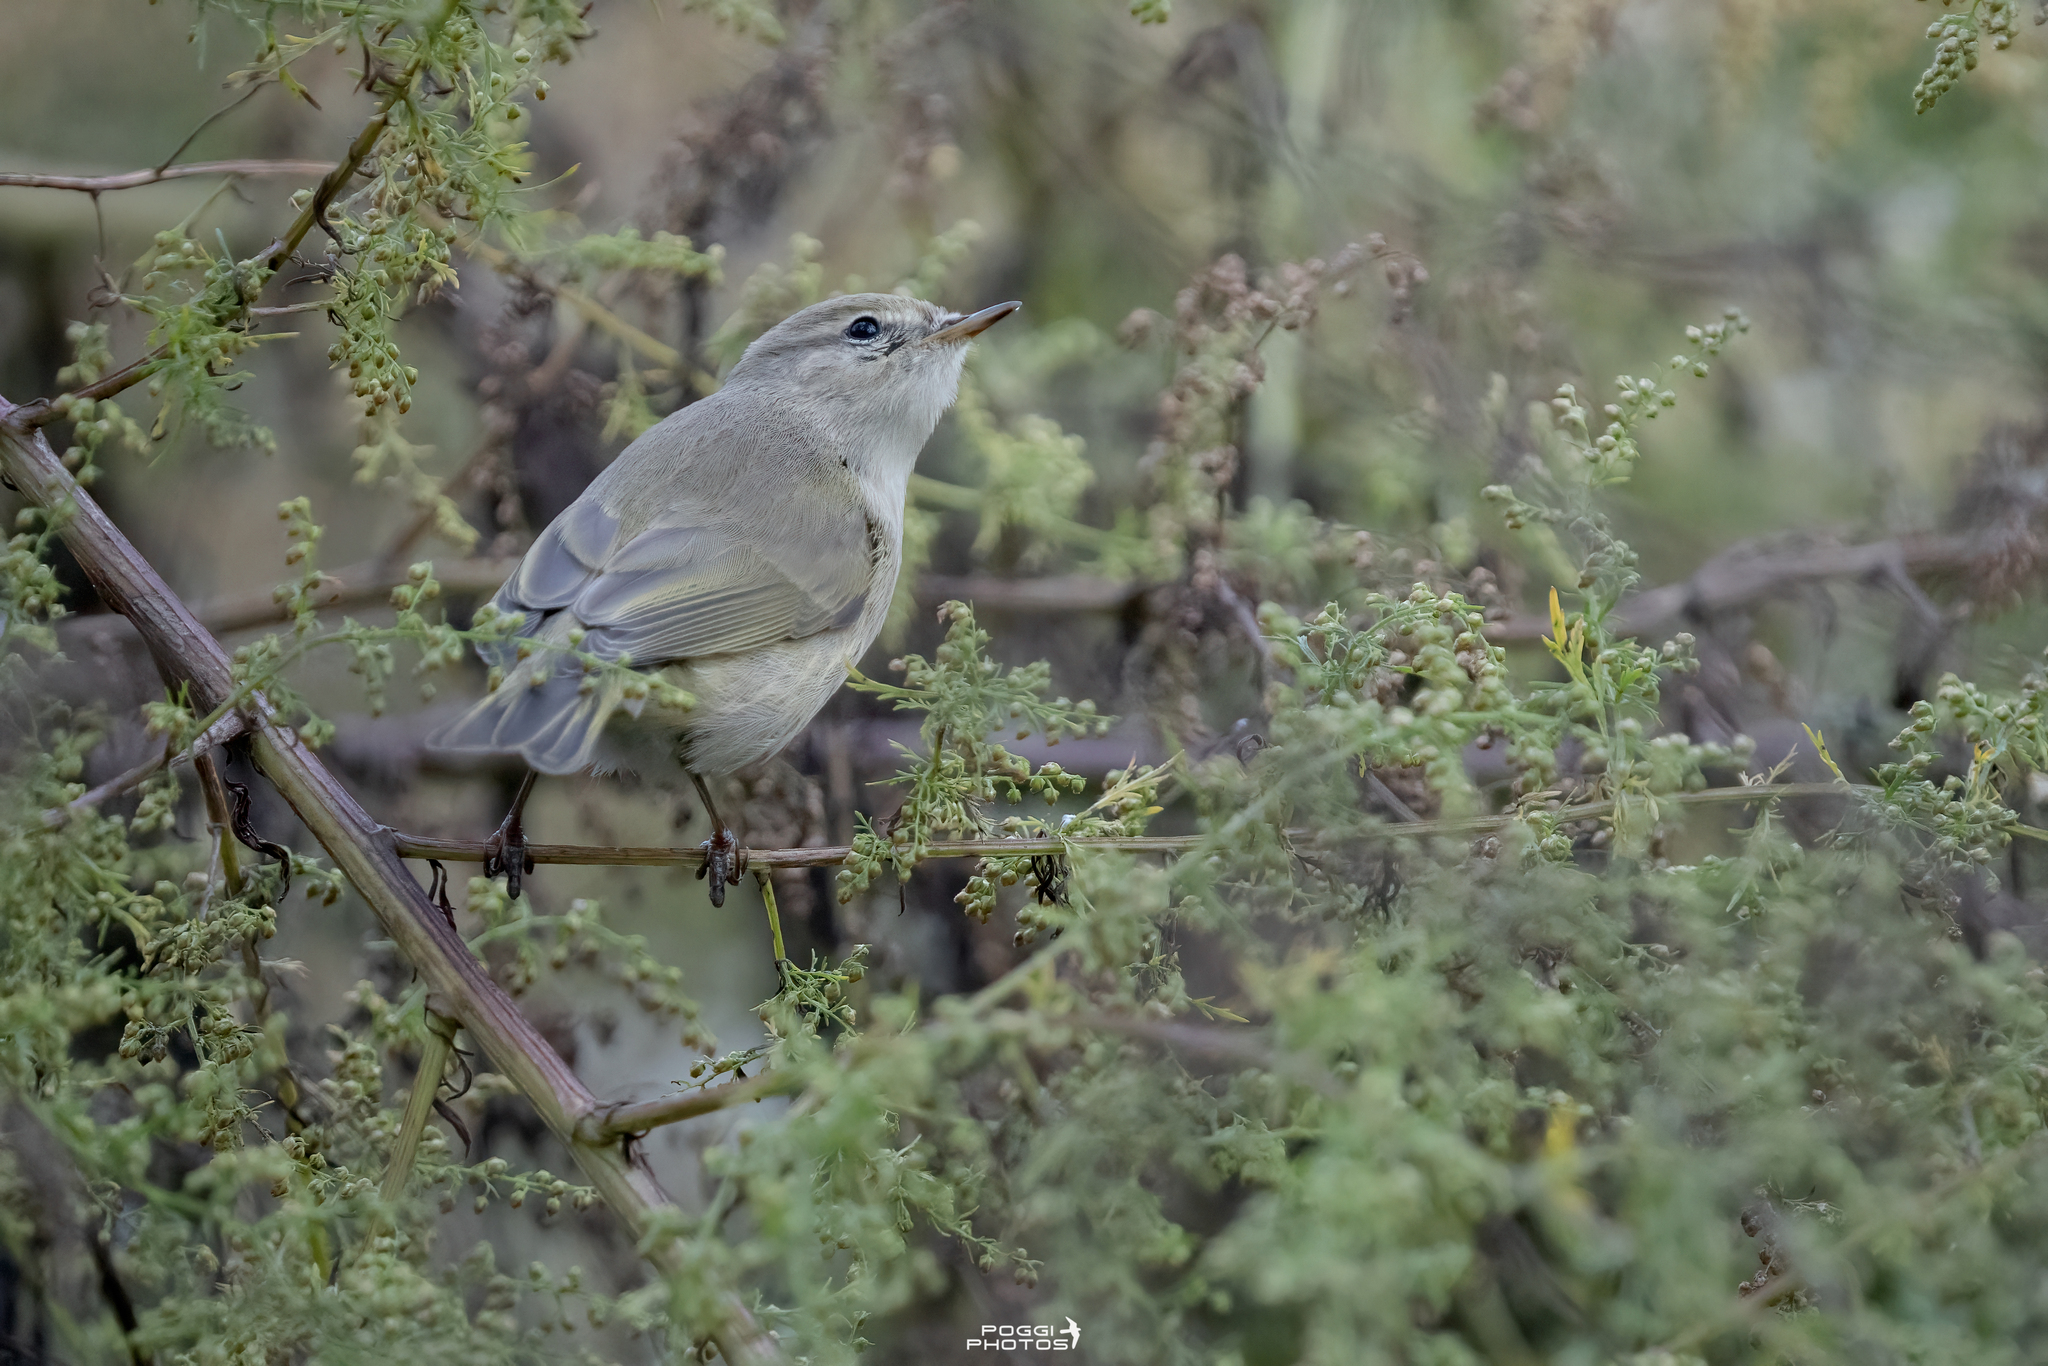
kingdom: Animalia
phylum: Chordata
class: Aves
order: Passeriformes
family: Phylloscopidae
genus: Phylloscopus
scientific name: Phylloscopus collybita
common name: Common chiffchaff
